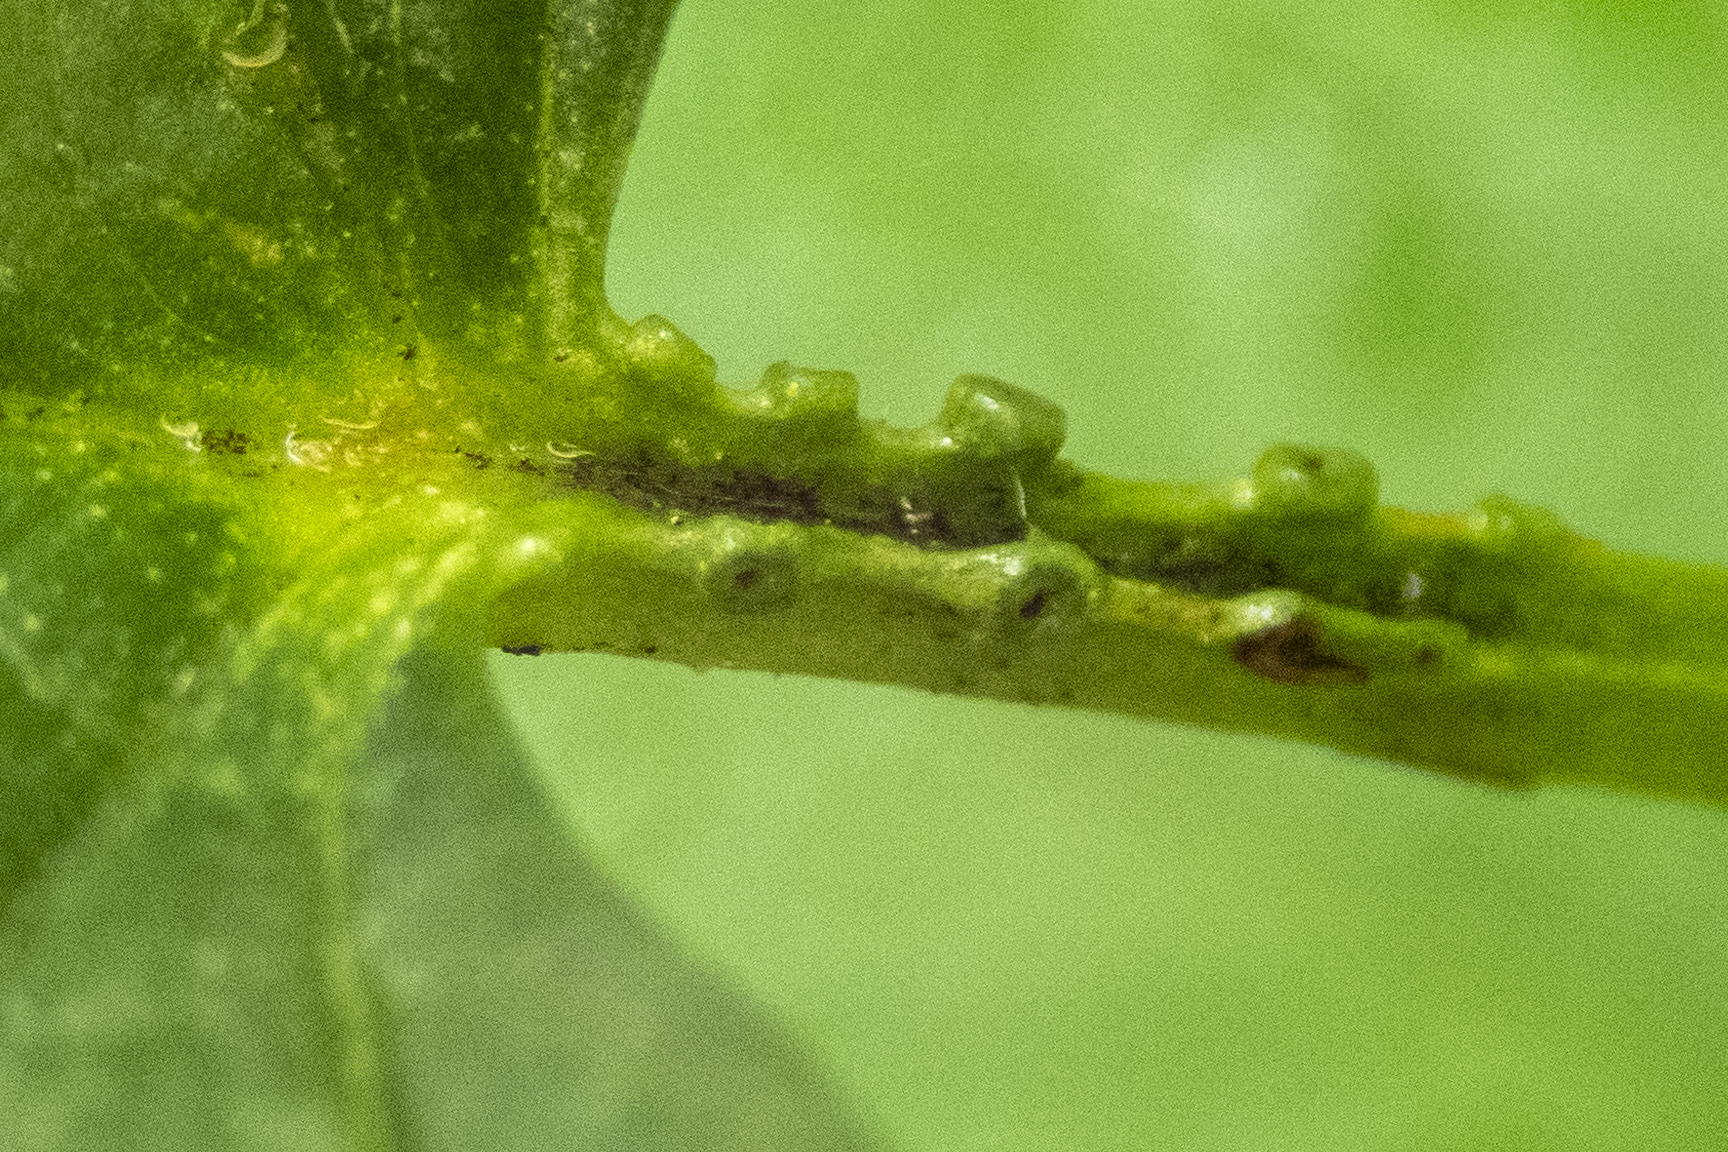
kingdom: Plantae
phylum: Tracheophyta
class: Magnoliopsida
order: Dipsacales
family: Viburnaceae
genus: Viburnum
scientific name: Viburnum opulus
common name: Guelder-rose
